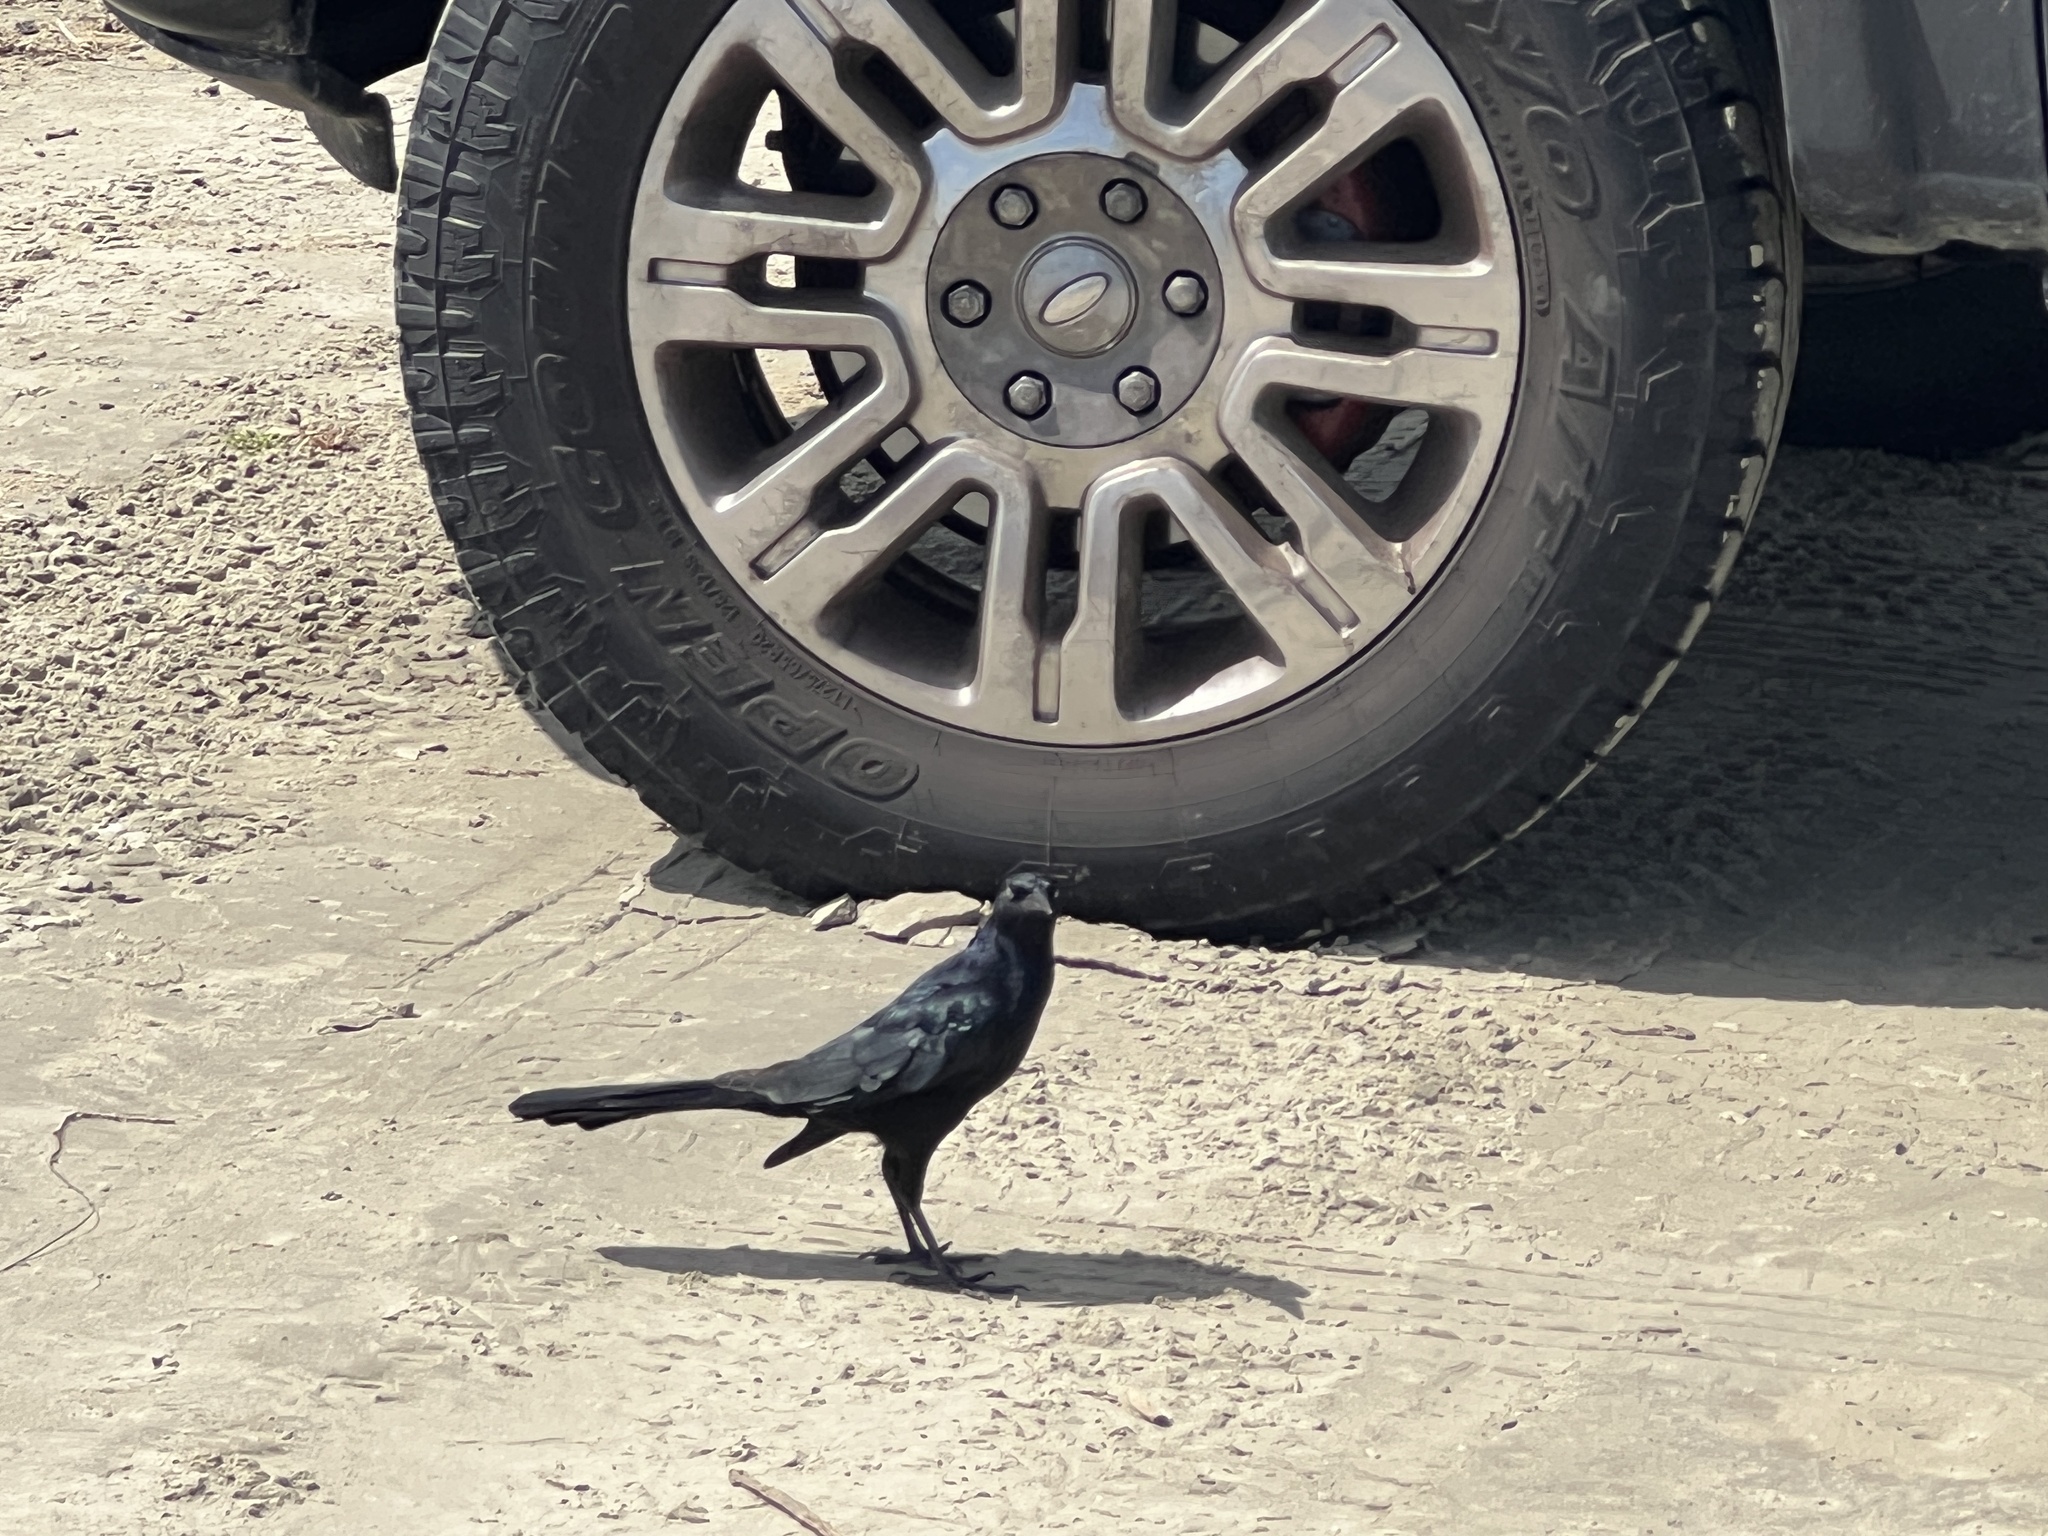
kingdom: Animalia
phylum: Chordata
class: Aves
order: Passeriformes
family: Icteridae
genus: Quiscalus
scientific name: Quiscalus mexicanus
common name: Great-tailed grackle
